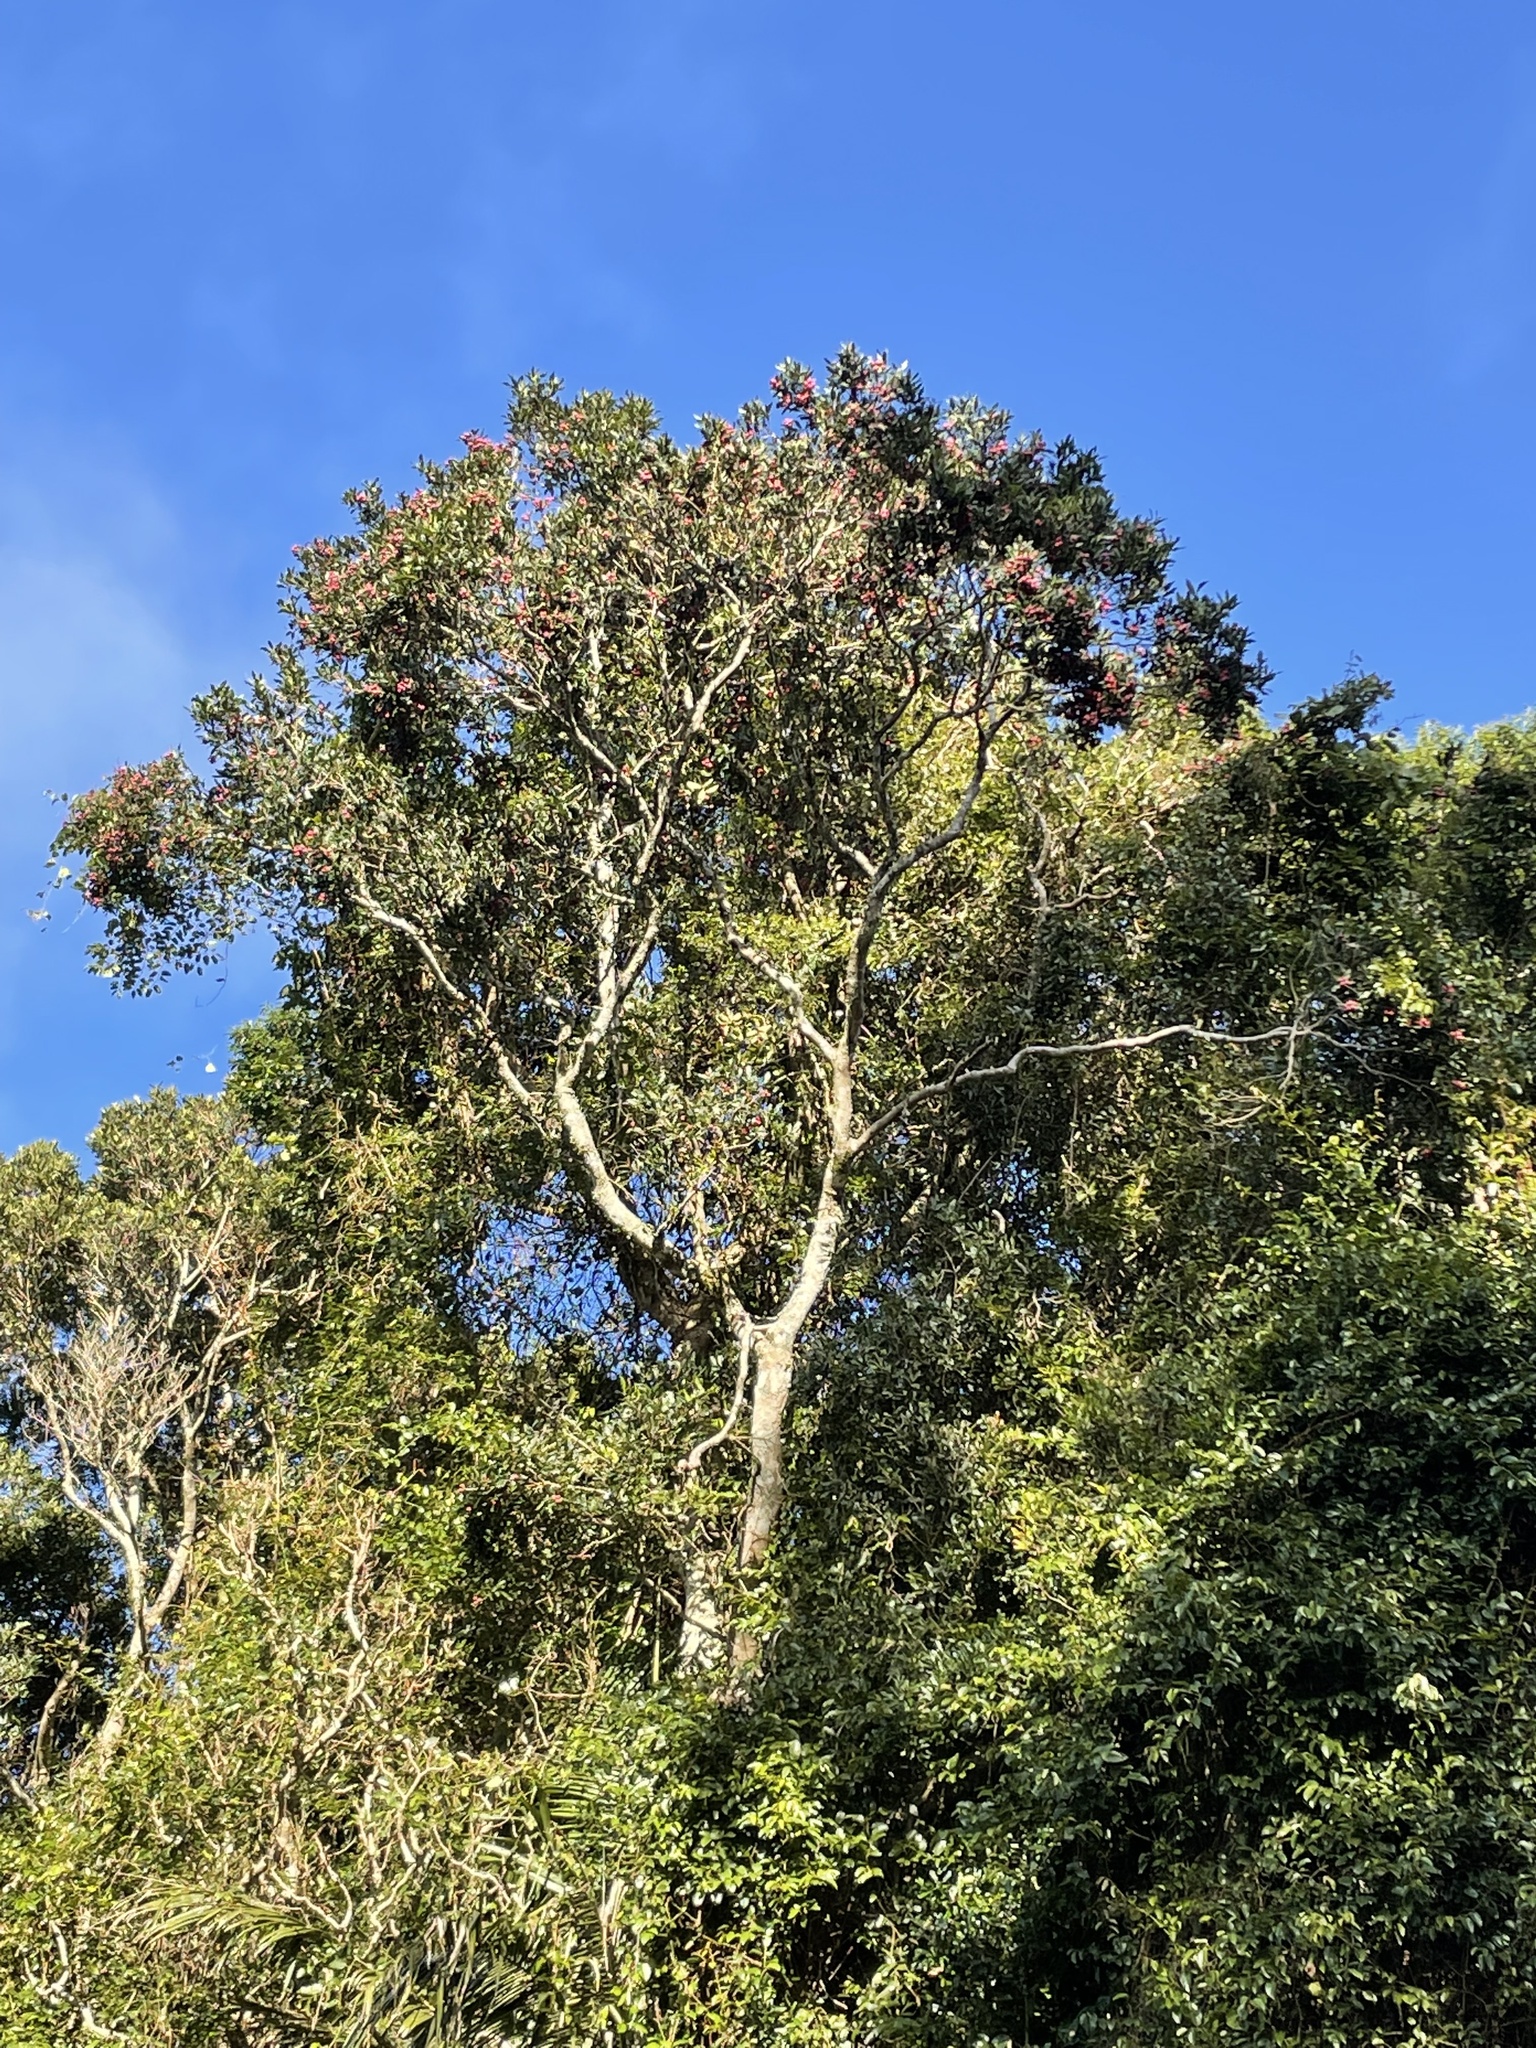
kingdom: Plantae
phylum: Tracheophyta
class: Magnoliopsida
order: Myrtales
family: Myrtaceae
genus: Syzygium
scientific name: Syzygium ingens
